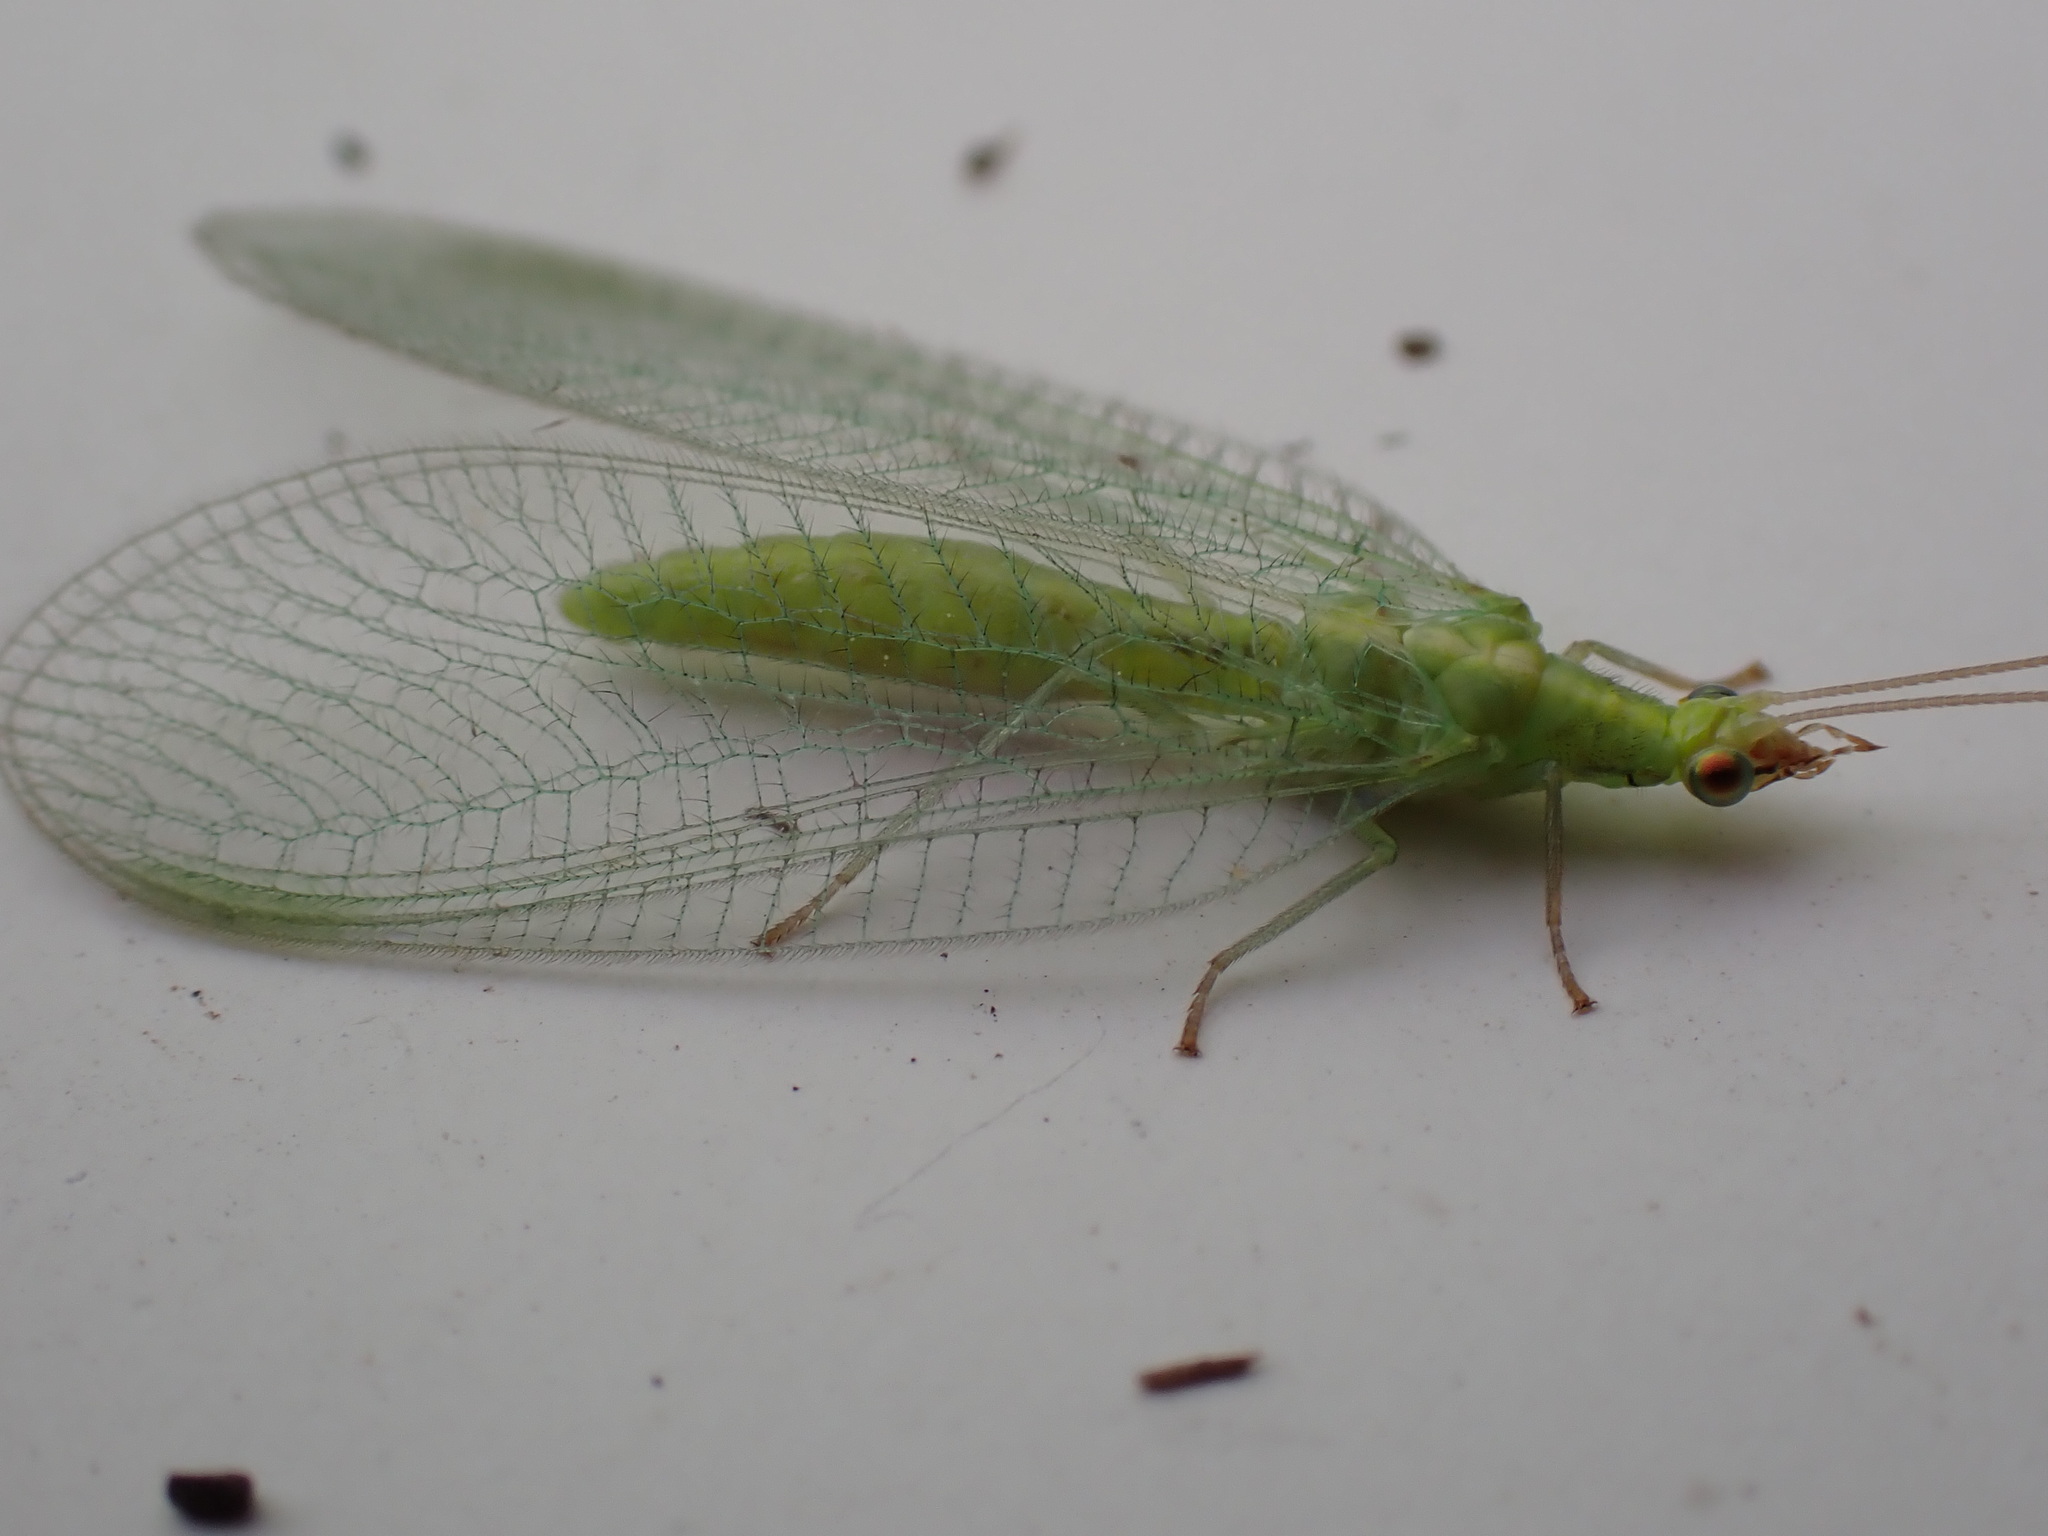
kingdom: Animalia
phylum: Arthropoda
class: Insecta
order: Neuroptera
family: Chrysopidae
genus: Chrysoperla
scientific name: Chrysoperla
